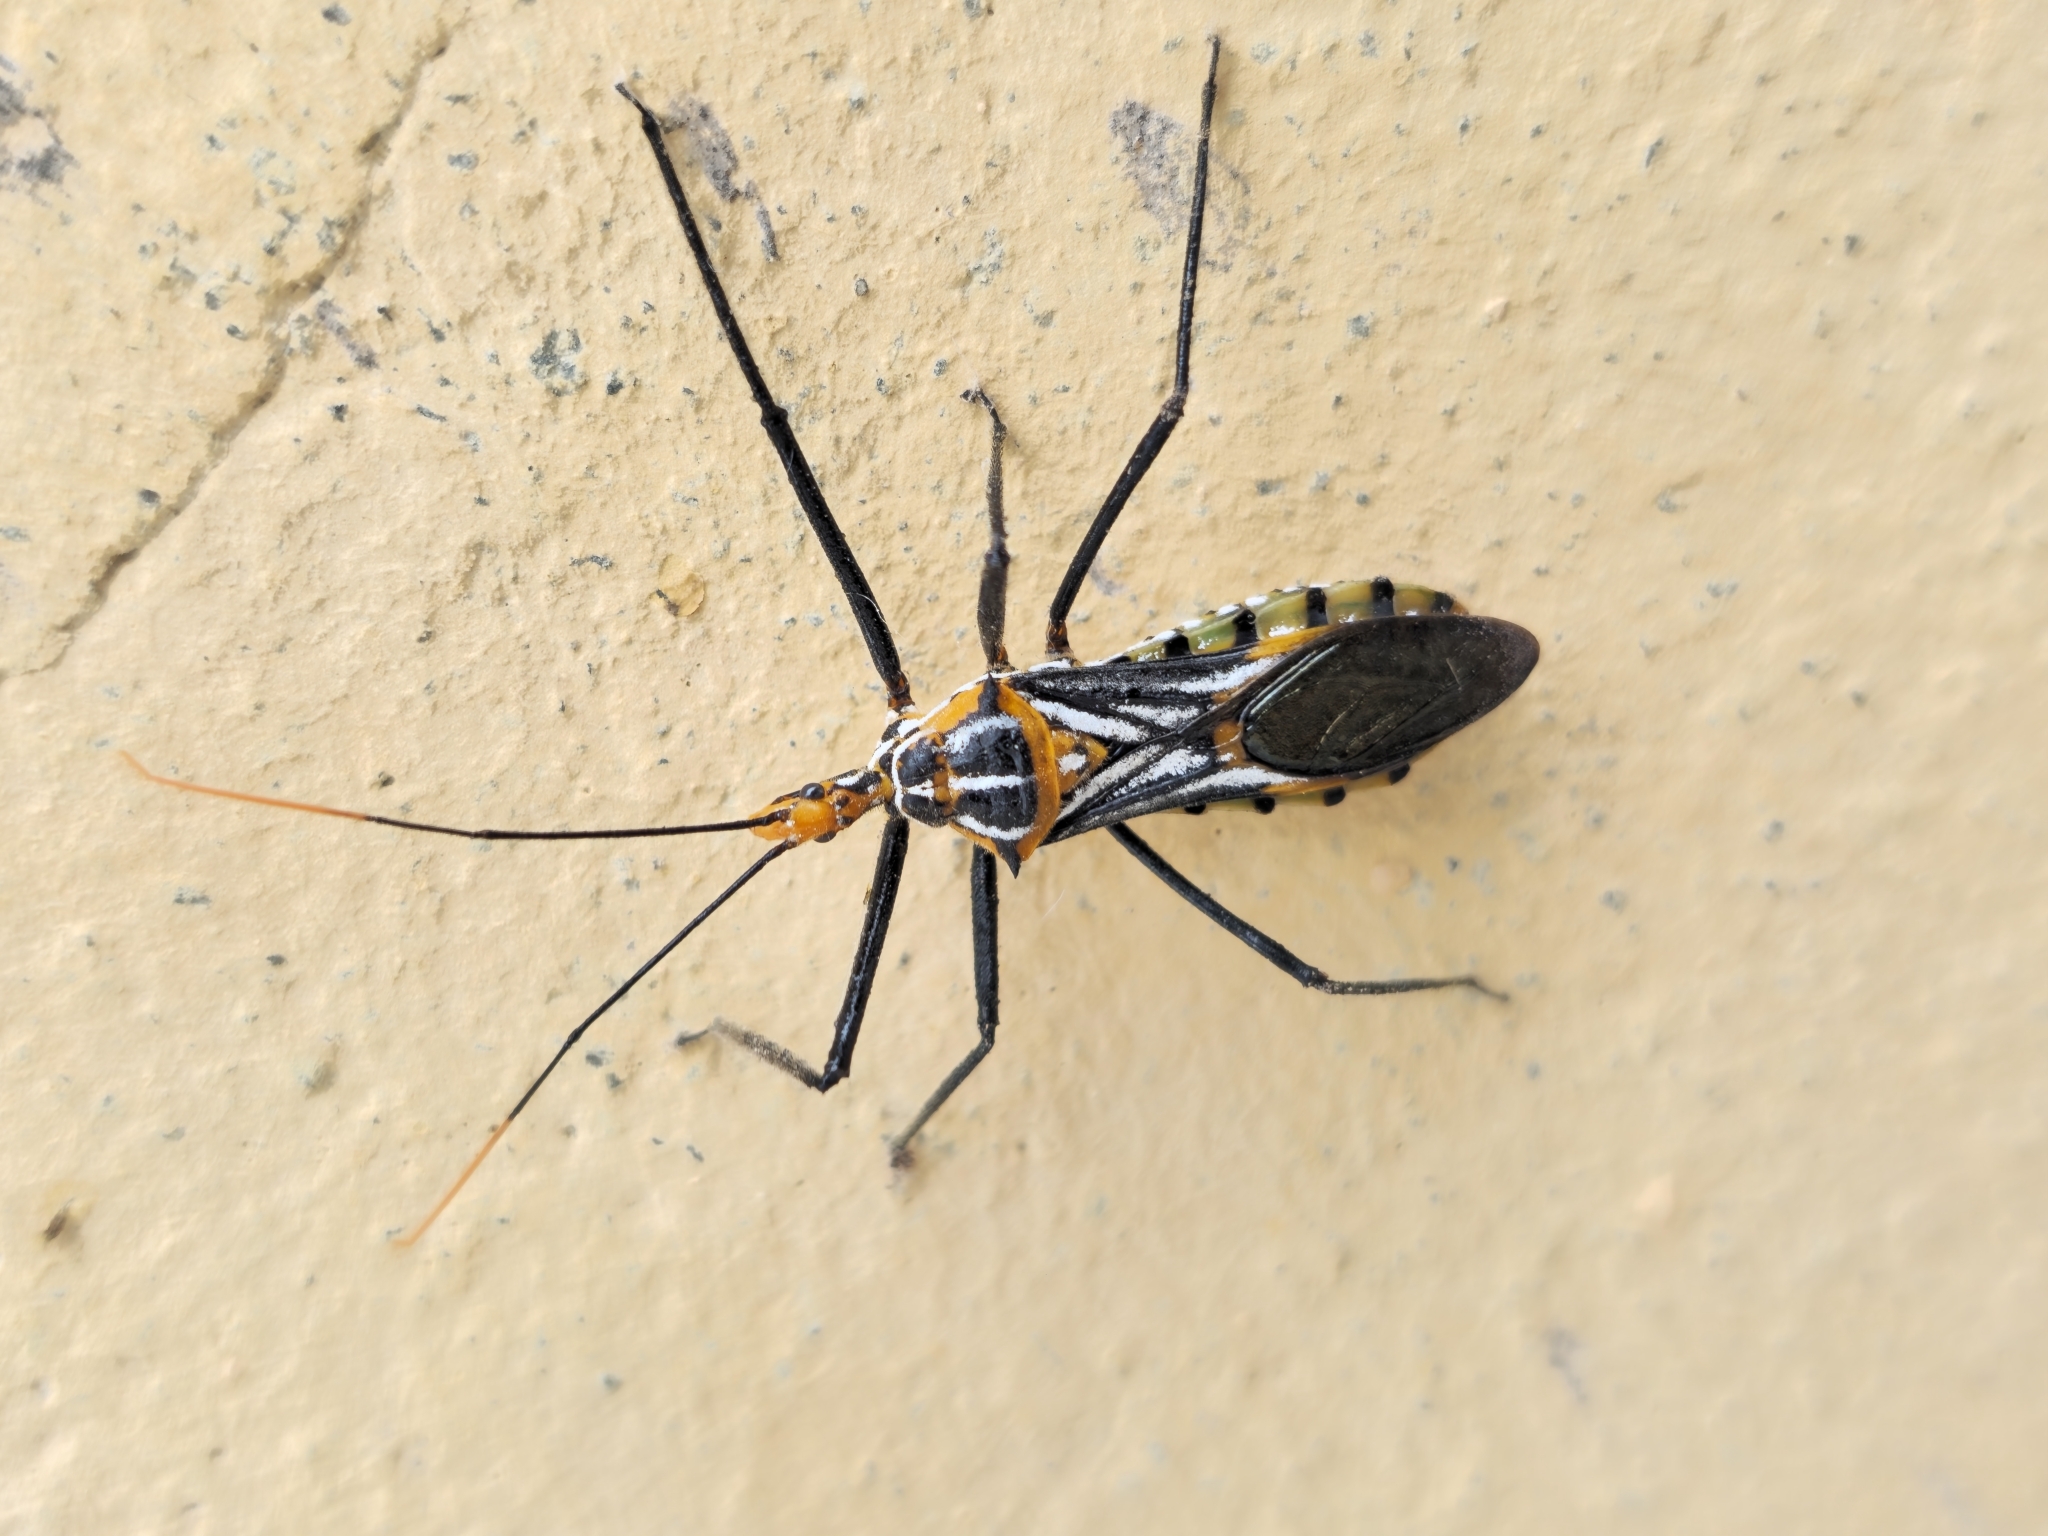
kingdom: Animalia
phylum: Arthropoda
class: Insecta
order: Hemiptera
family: Reduviidae
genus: Zelus
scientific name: Zelus leucogrammus
